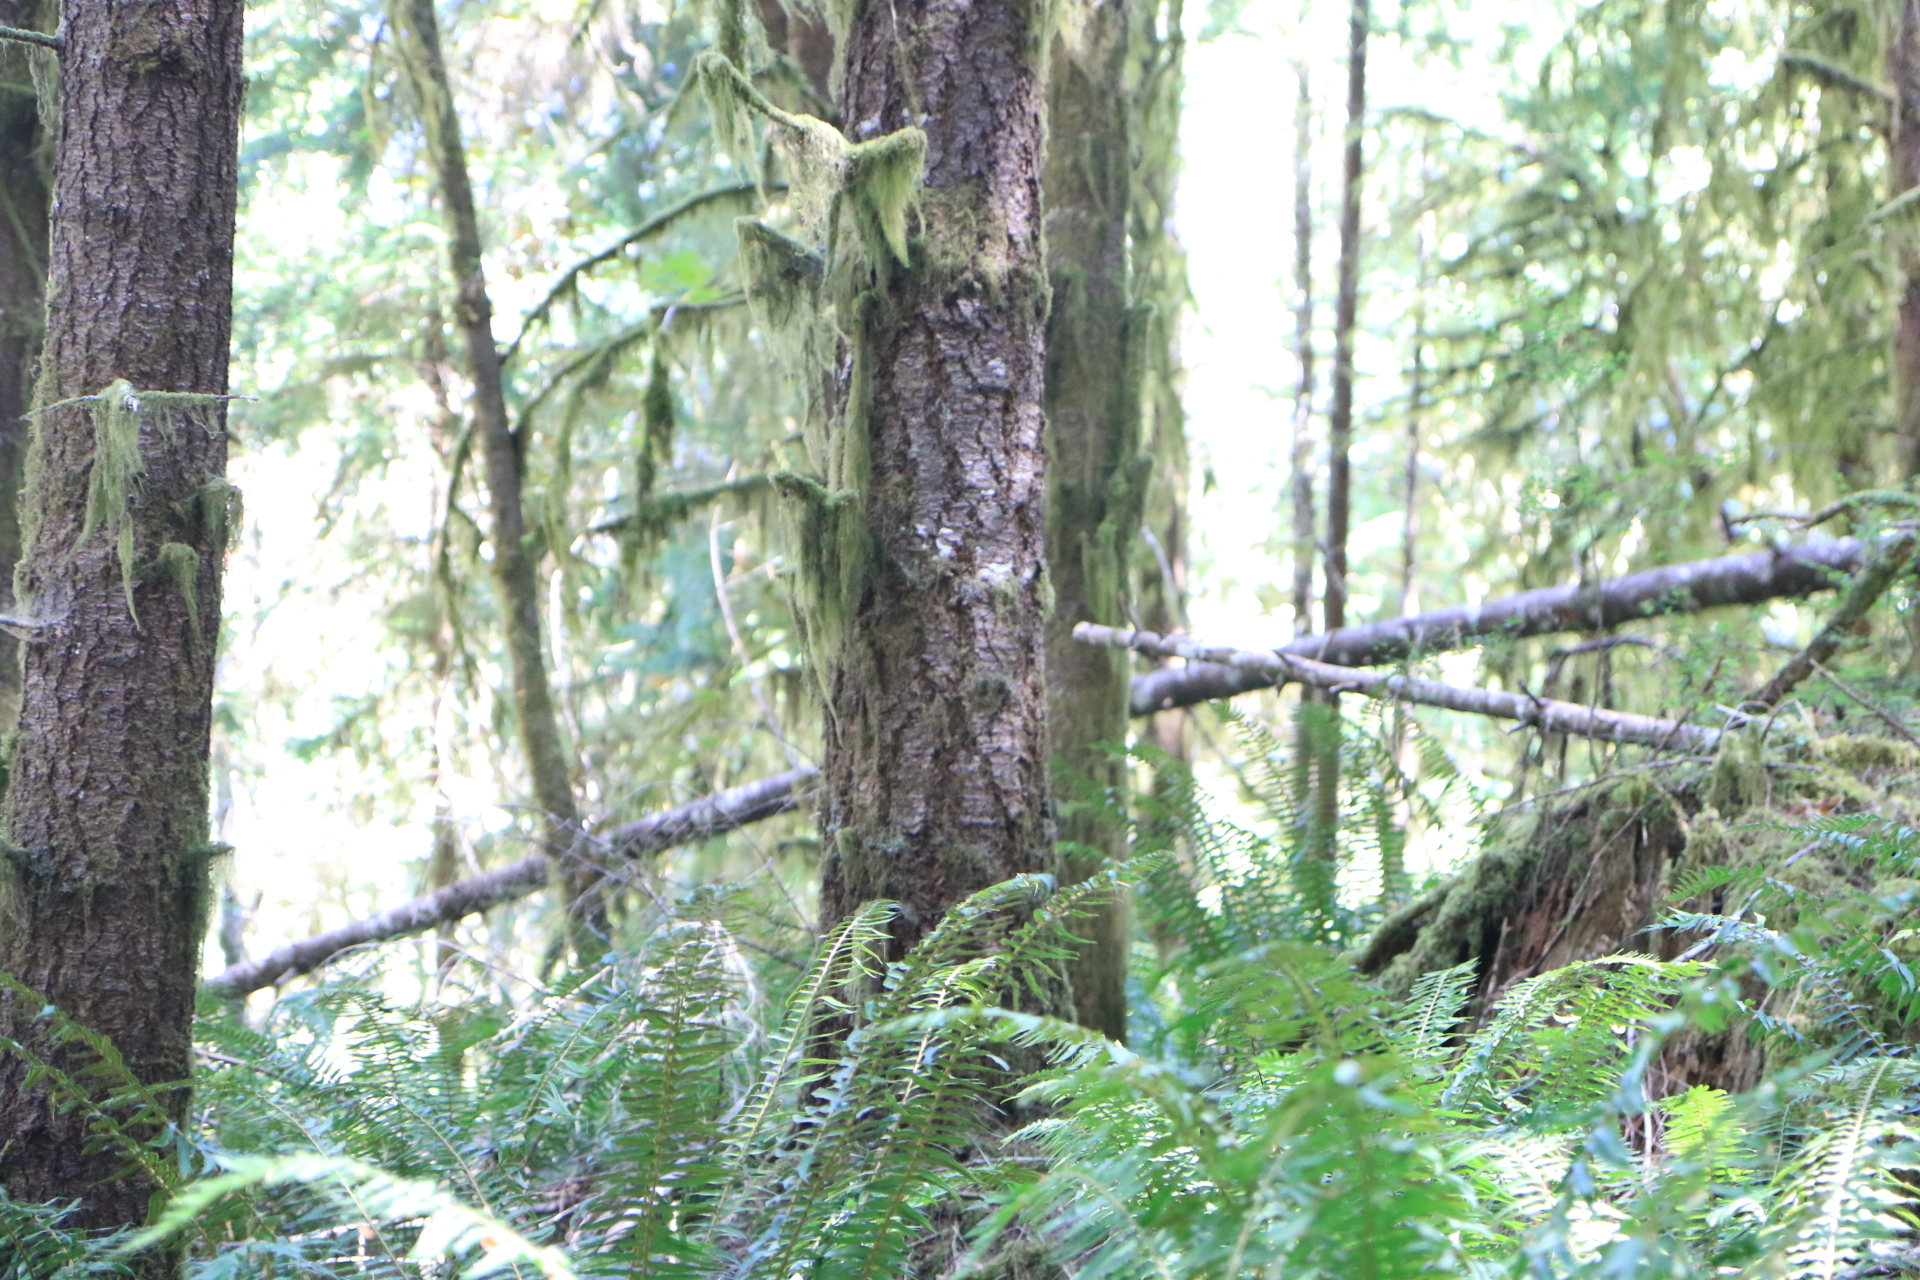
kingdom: Plantae
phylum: Tracheophyta
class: Pinopsida
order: Pinales
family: Pinaceae
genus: Pseudotsuga
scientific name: Pseudotsuga menziesii
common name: Douglas fir
